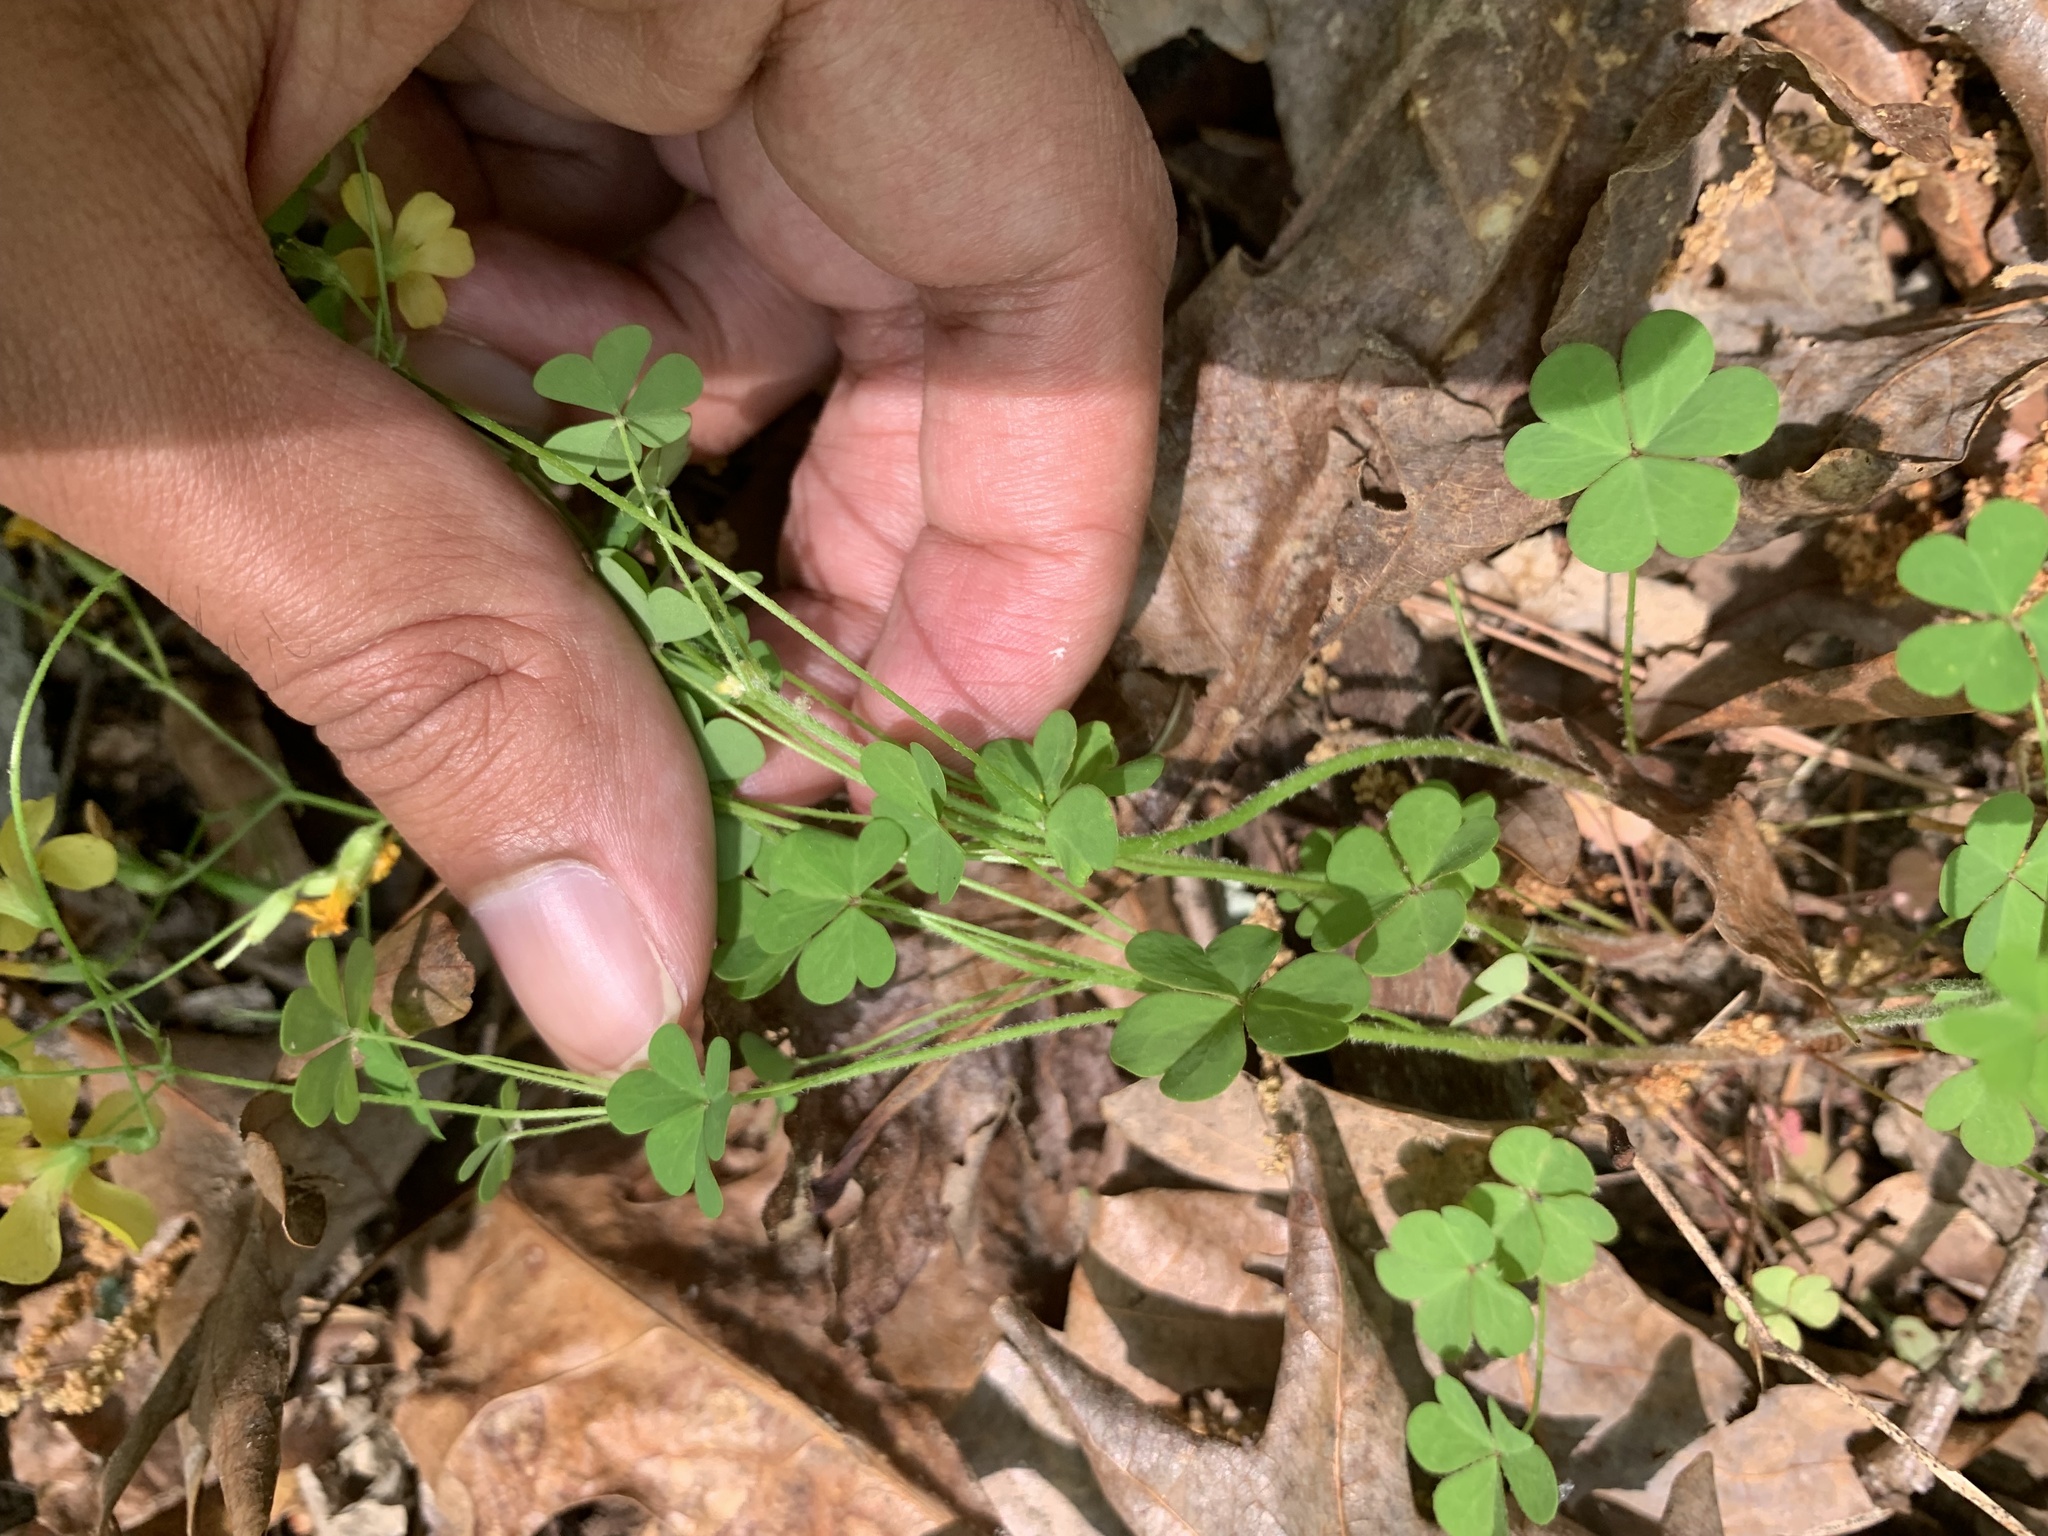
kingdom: Plantae
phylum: Tracheophyta
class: Magnoliopsida
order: Oxalidales
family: Oxalidaceae
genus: Oxalis
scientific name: Oxalis colorea
